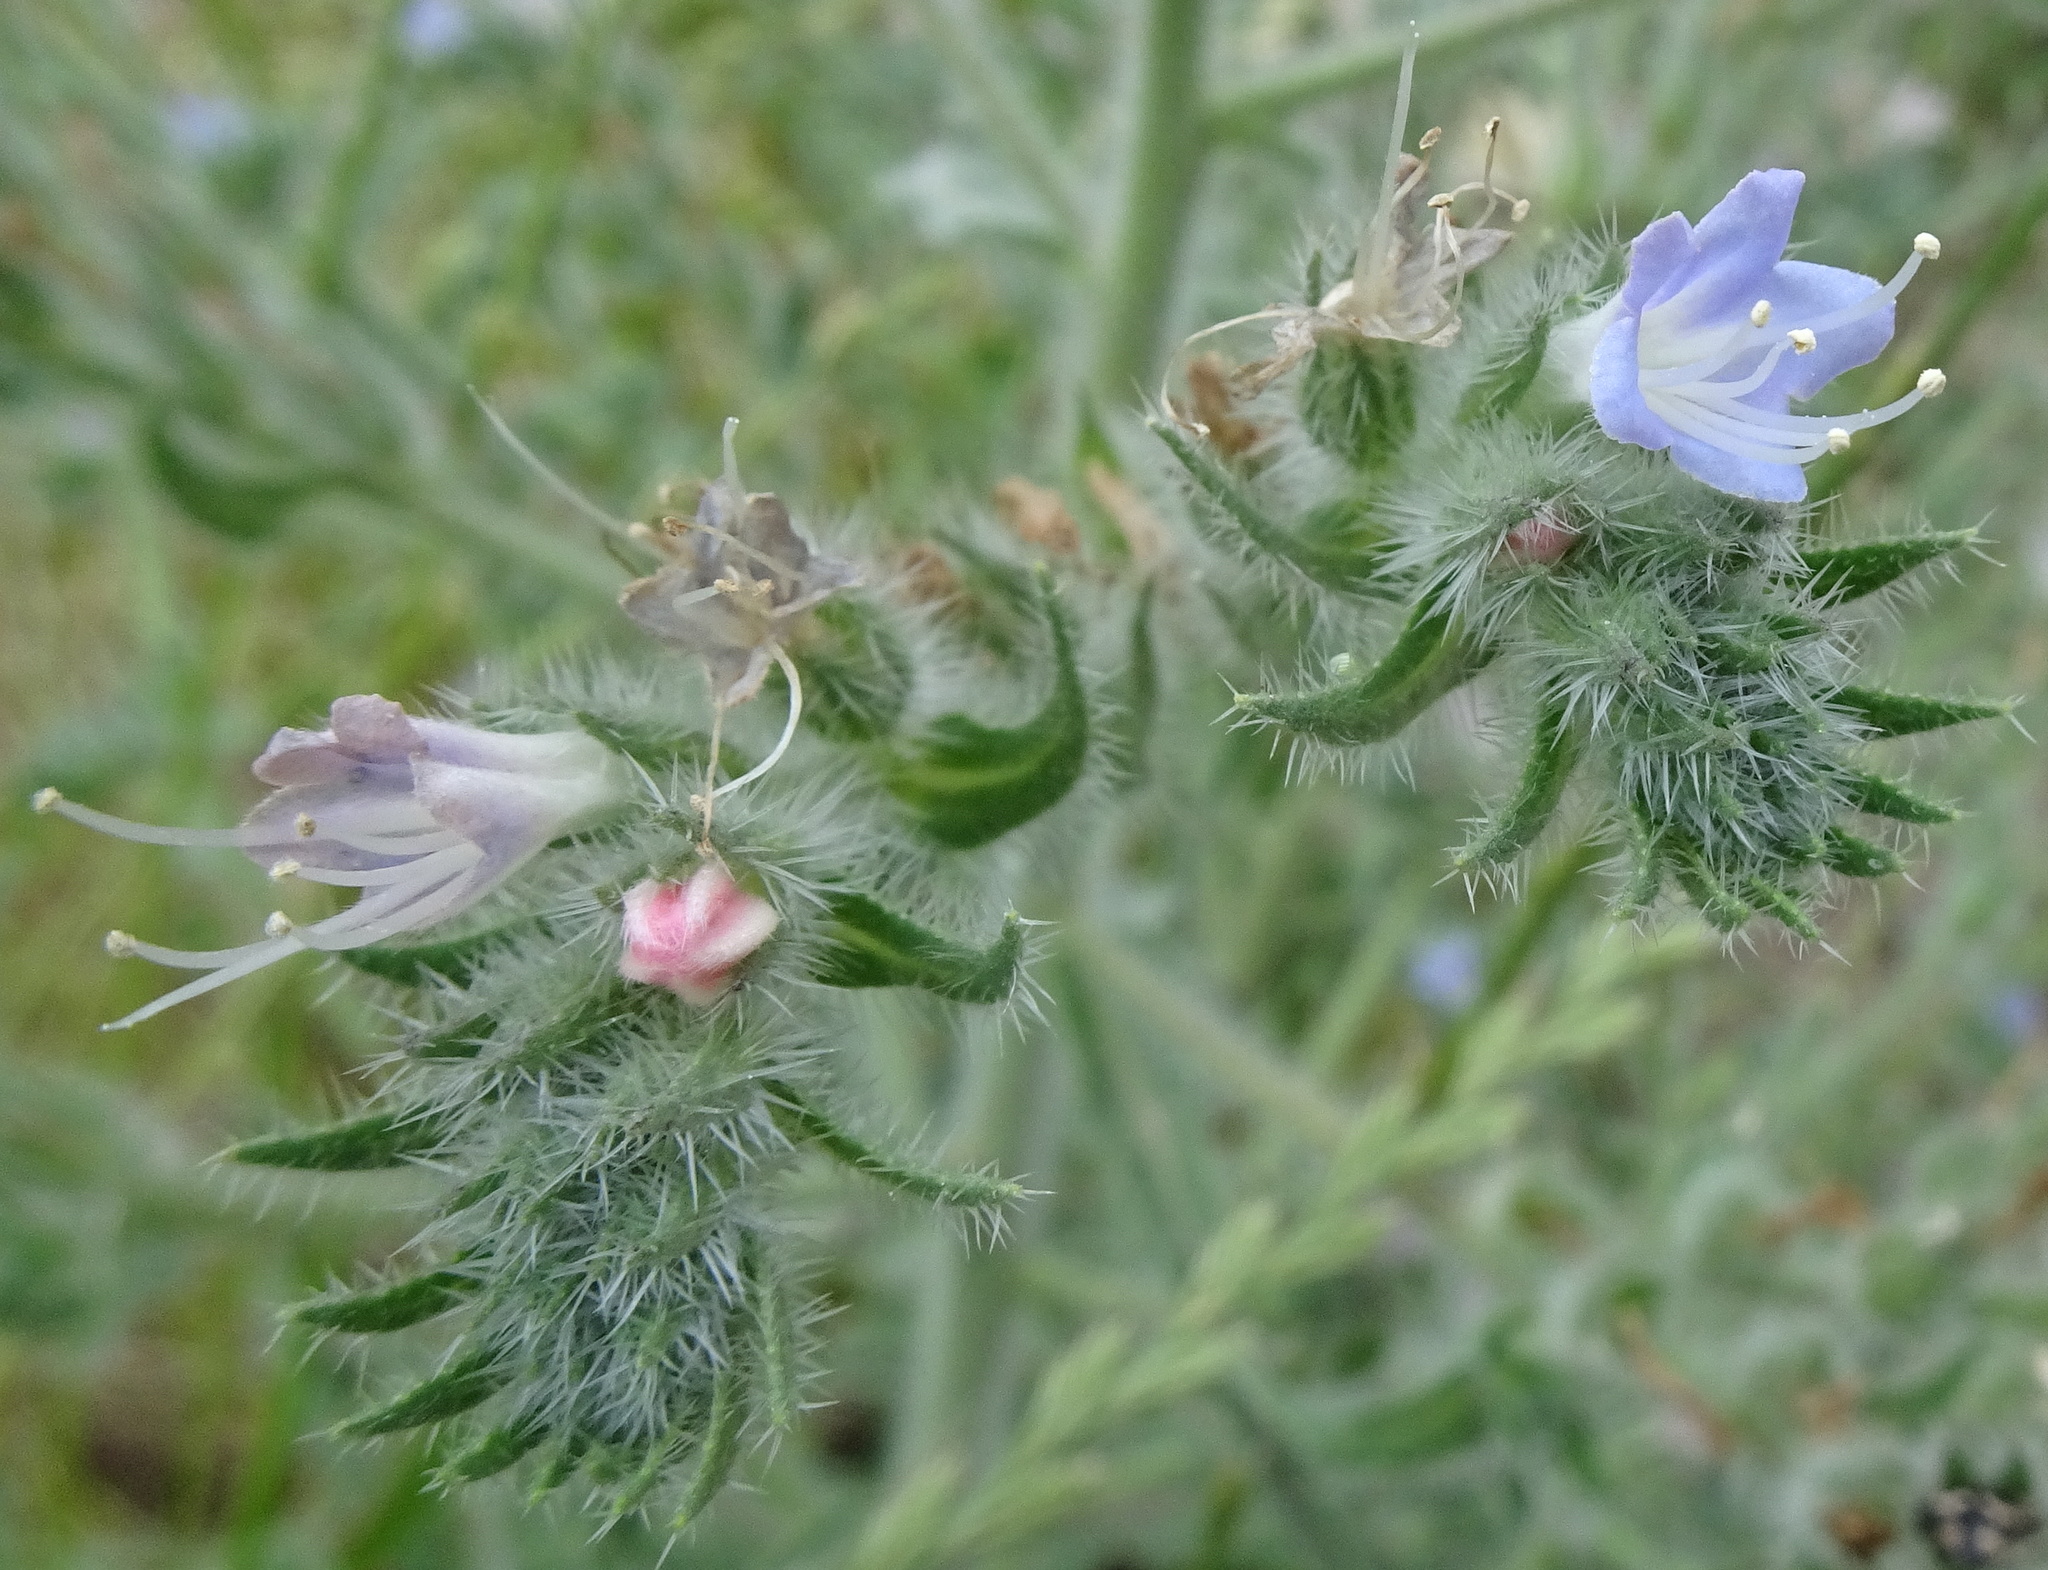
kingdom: Plantae
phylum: Tracheophyta
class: Magnoliopsida
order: Boraginales
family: Boraginaceae
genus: Echium
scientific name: Echium italicum
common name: Italian viper's bugloss
